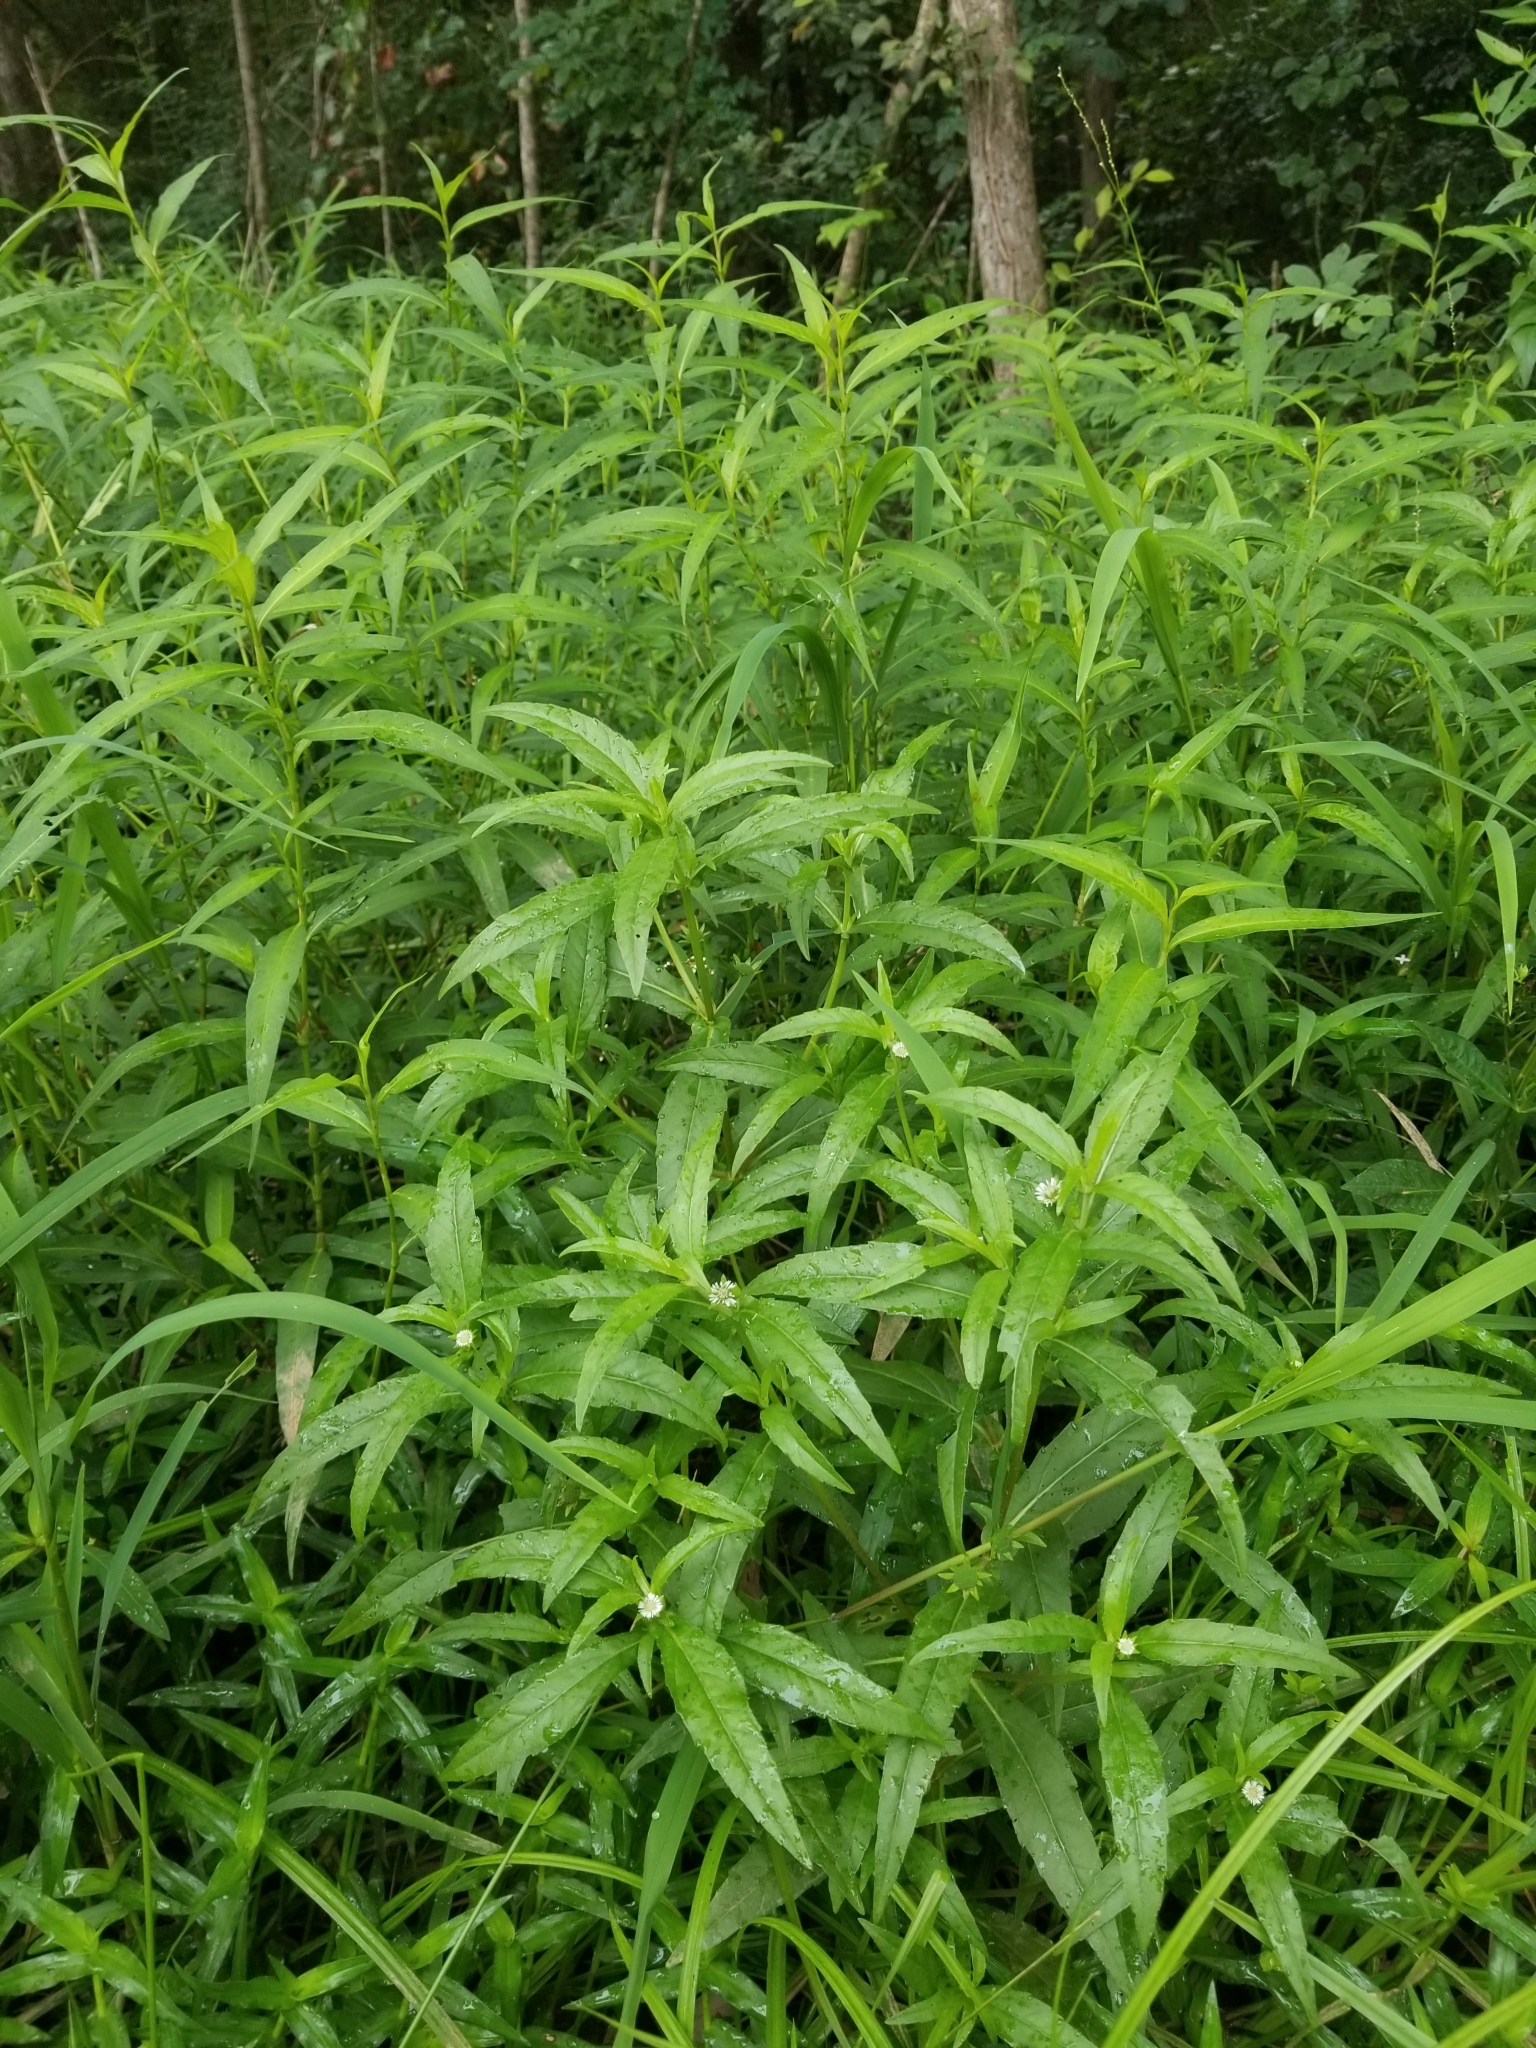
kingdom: Plantae
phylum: Tracheophyta
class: Magnoliopsida
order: Asterales
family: Asteraceae
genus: Eclipta
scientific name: Eclipta prostrata
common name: False daisy
